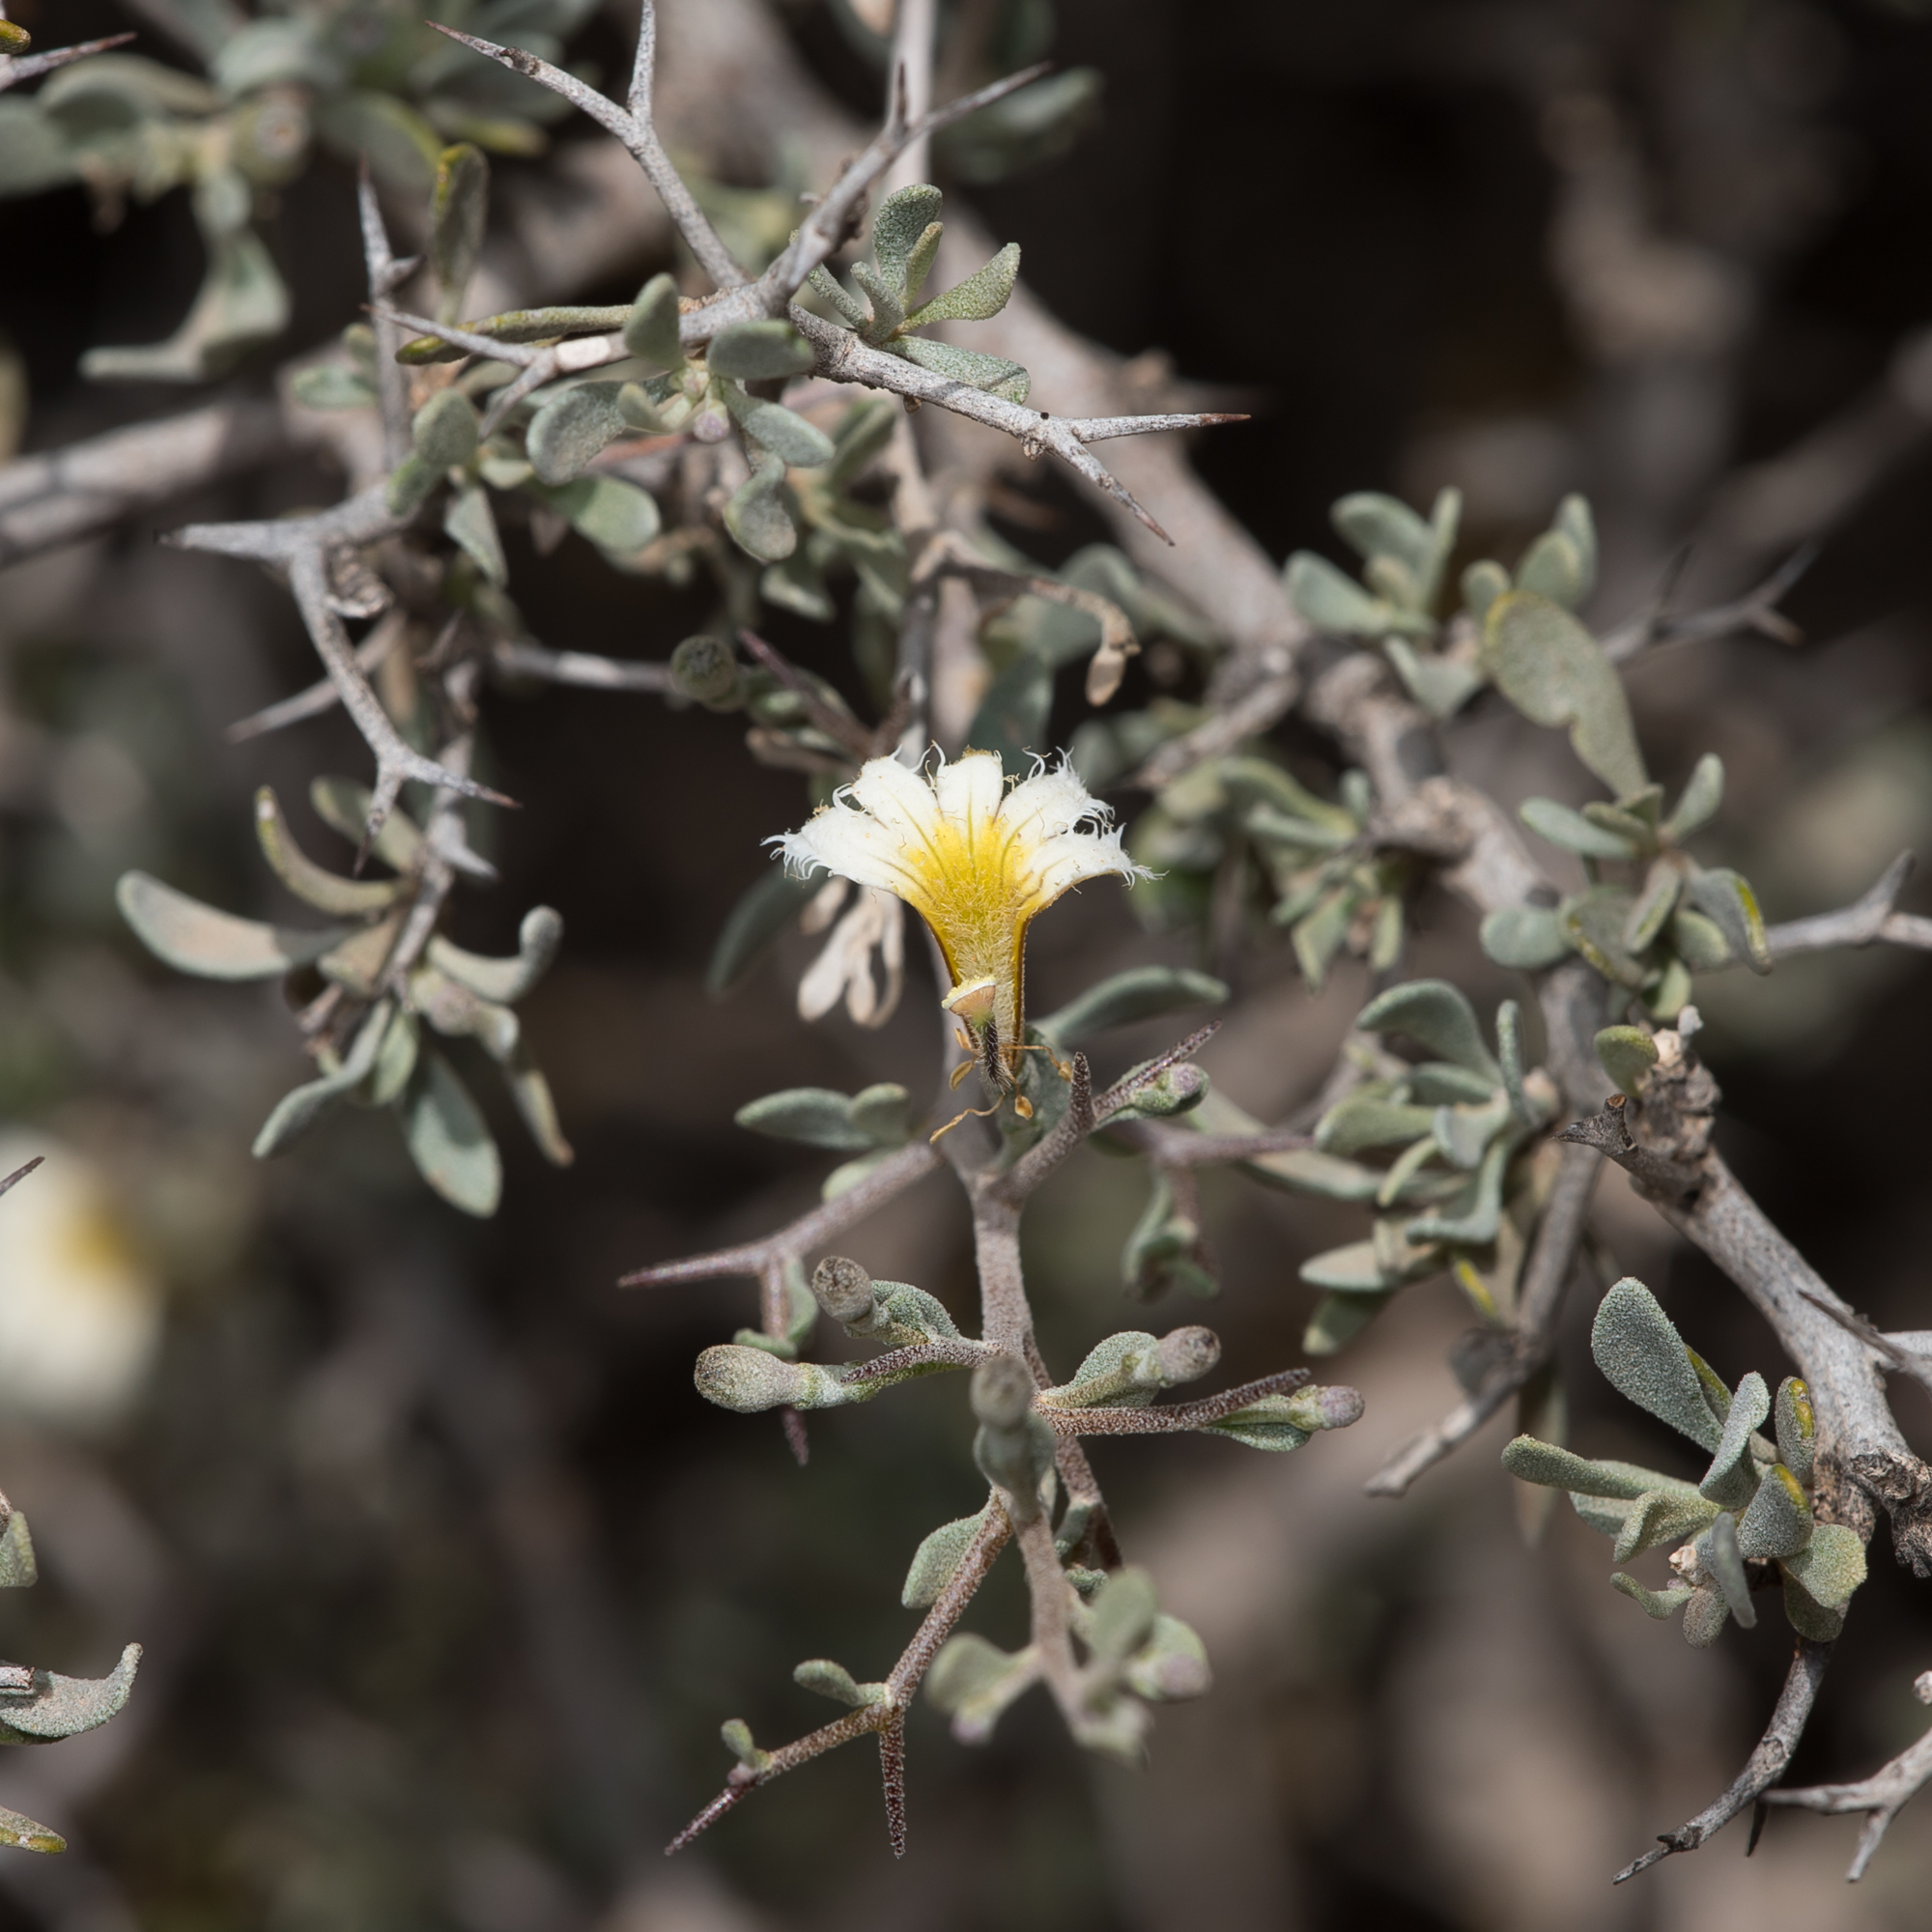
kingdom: Plantae
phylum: Tracheophyta
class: Magnoliopsida
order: Asterales
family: Goodeniaceae
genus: Scaevola
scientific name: Scaevola spinescens
